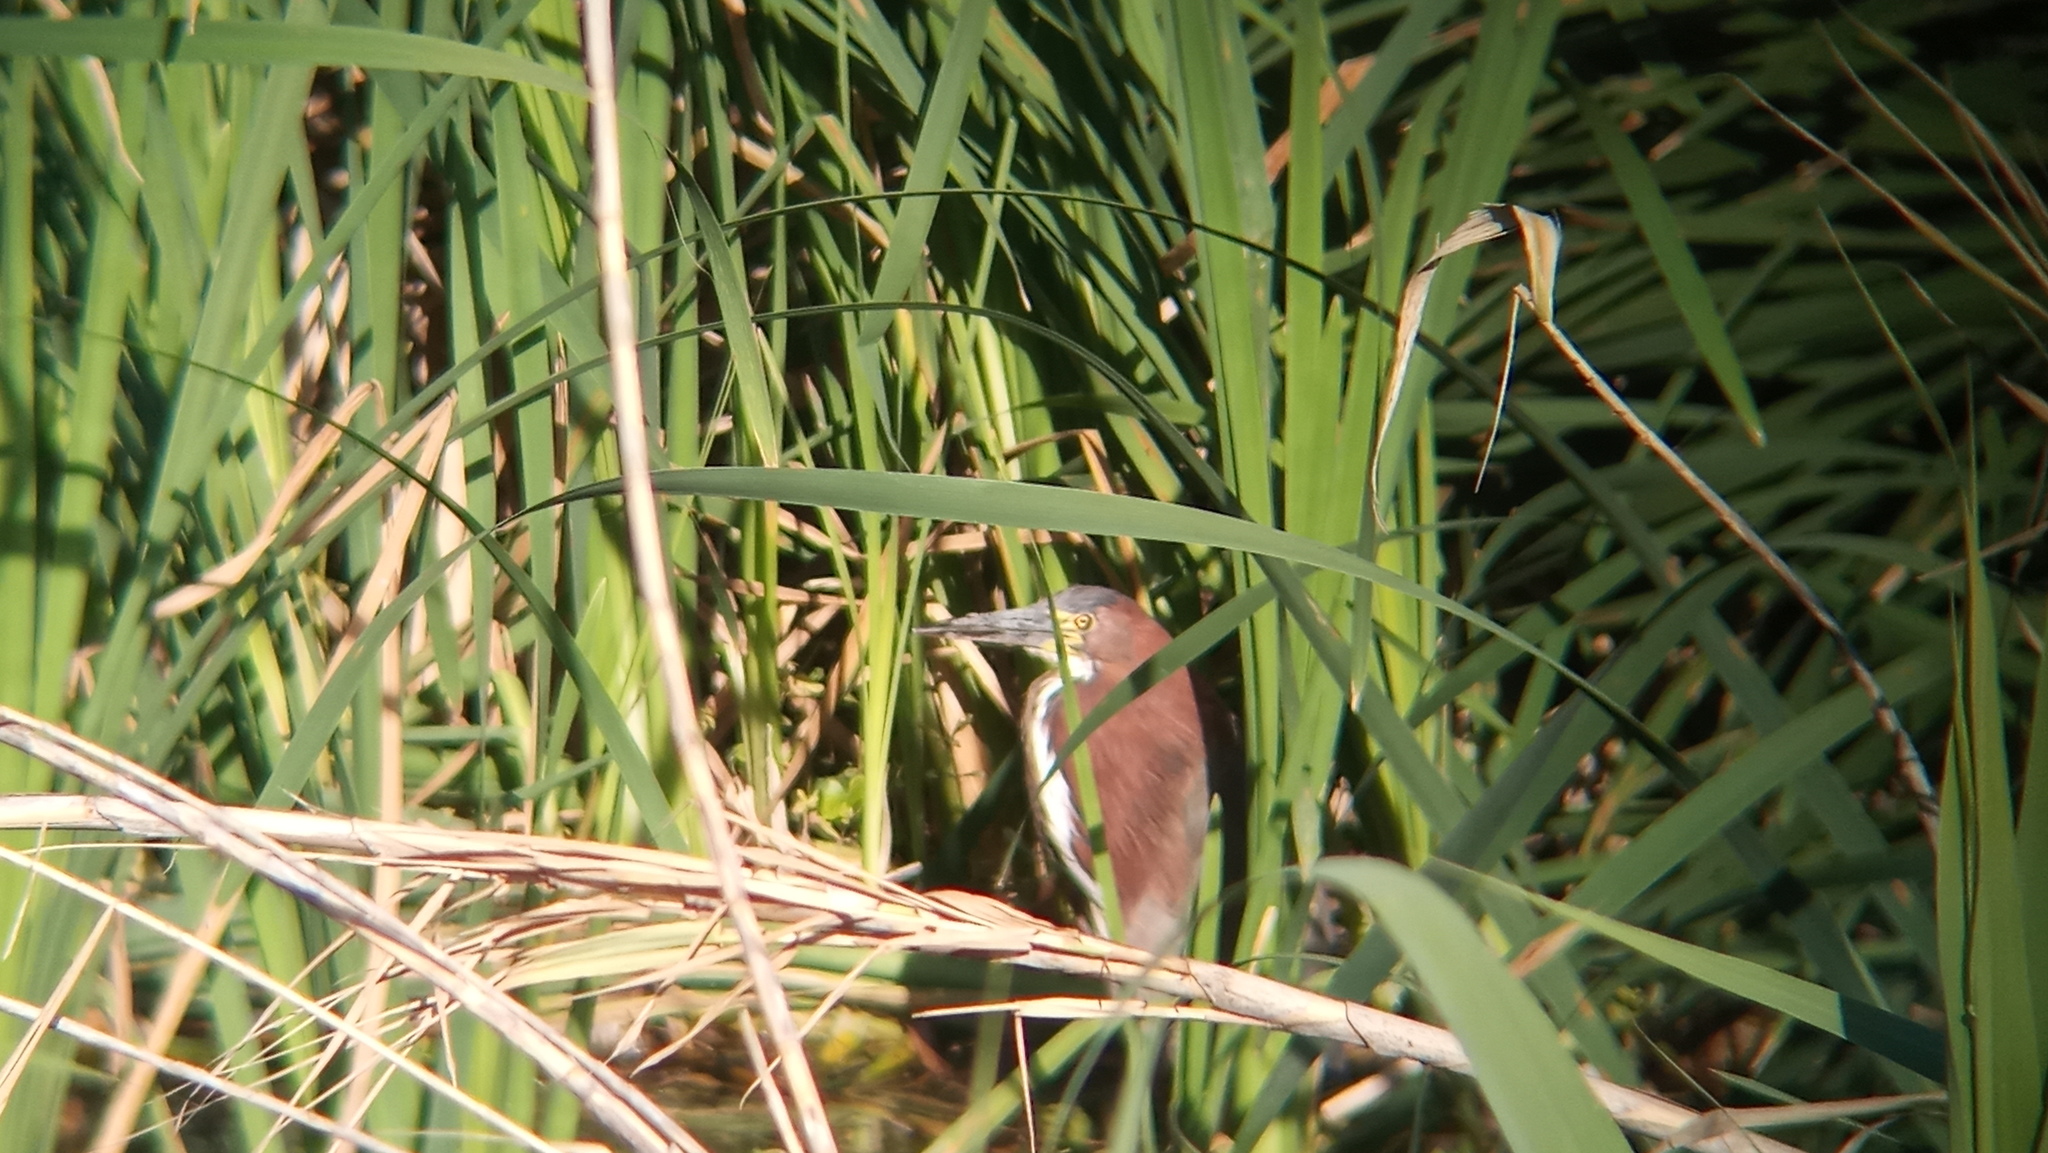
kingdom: Animalia
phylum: Chordata
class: Aves
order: Pelecaniformes
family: Ardeidae
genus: Tigrisoma
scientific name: Tigrisoma lineatum
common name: Rufescent tiger-heron
